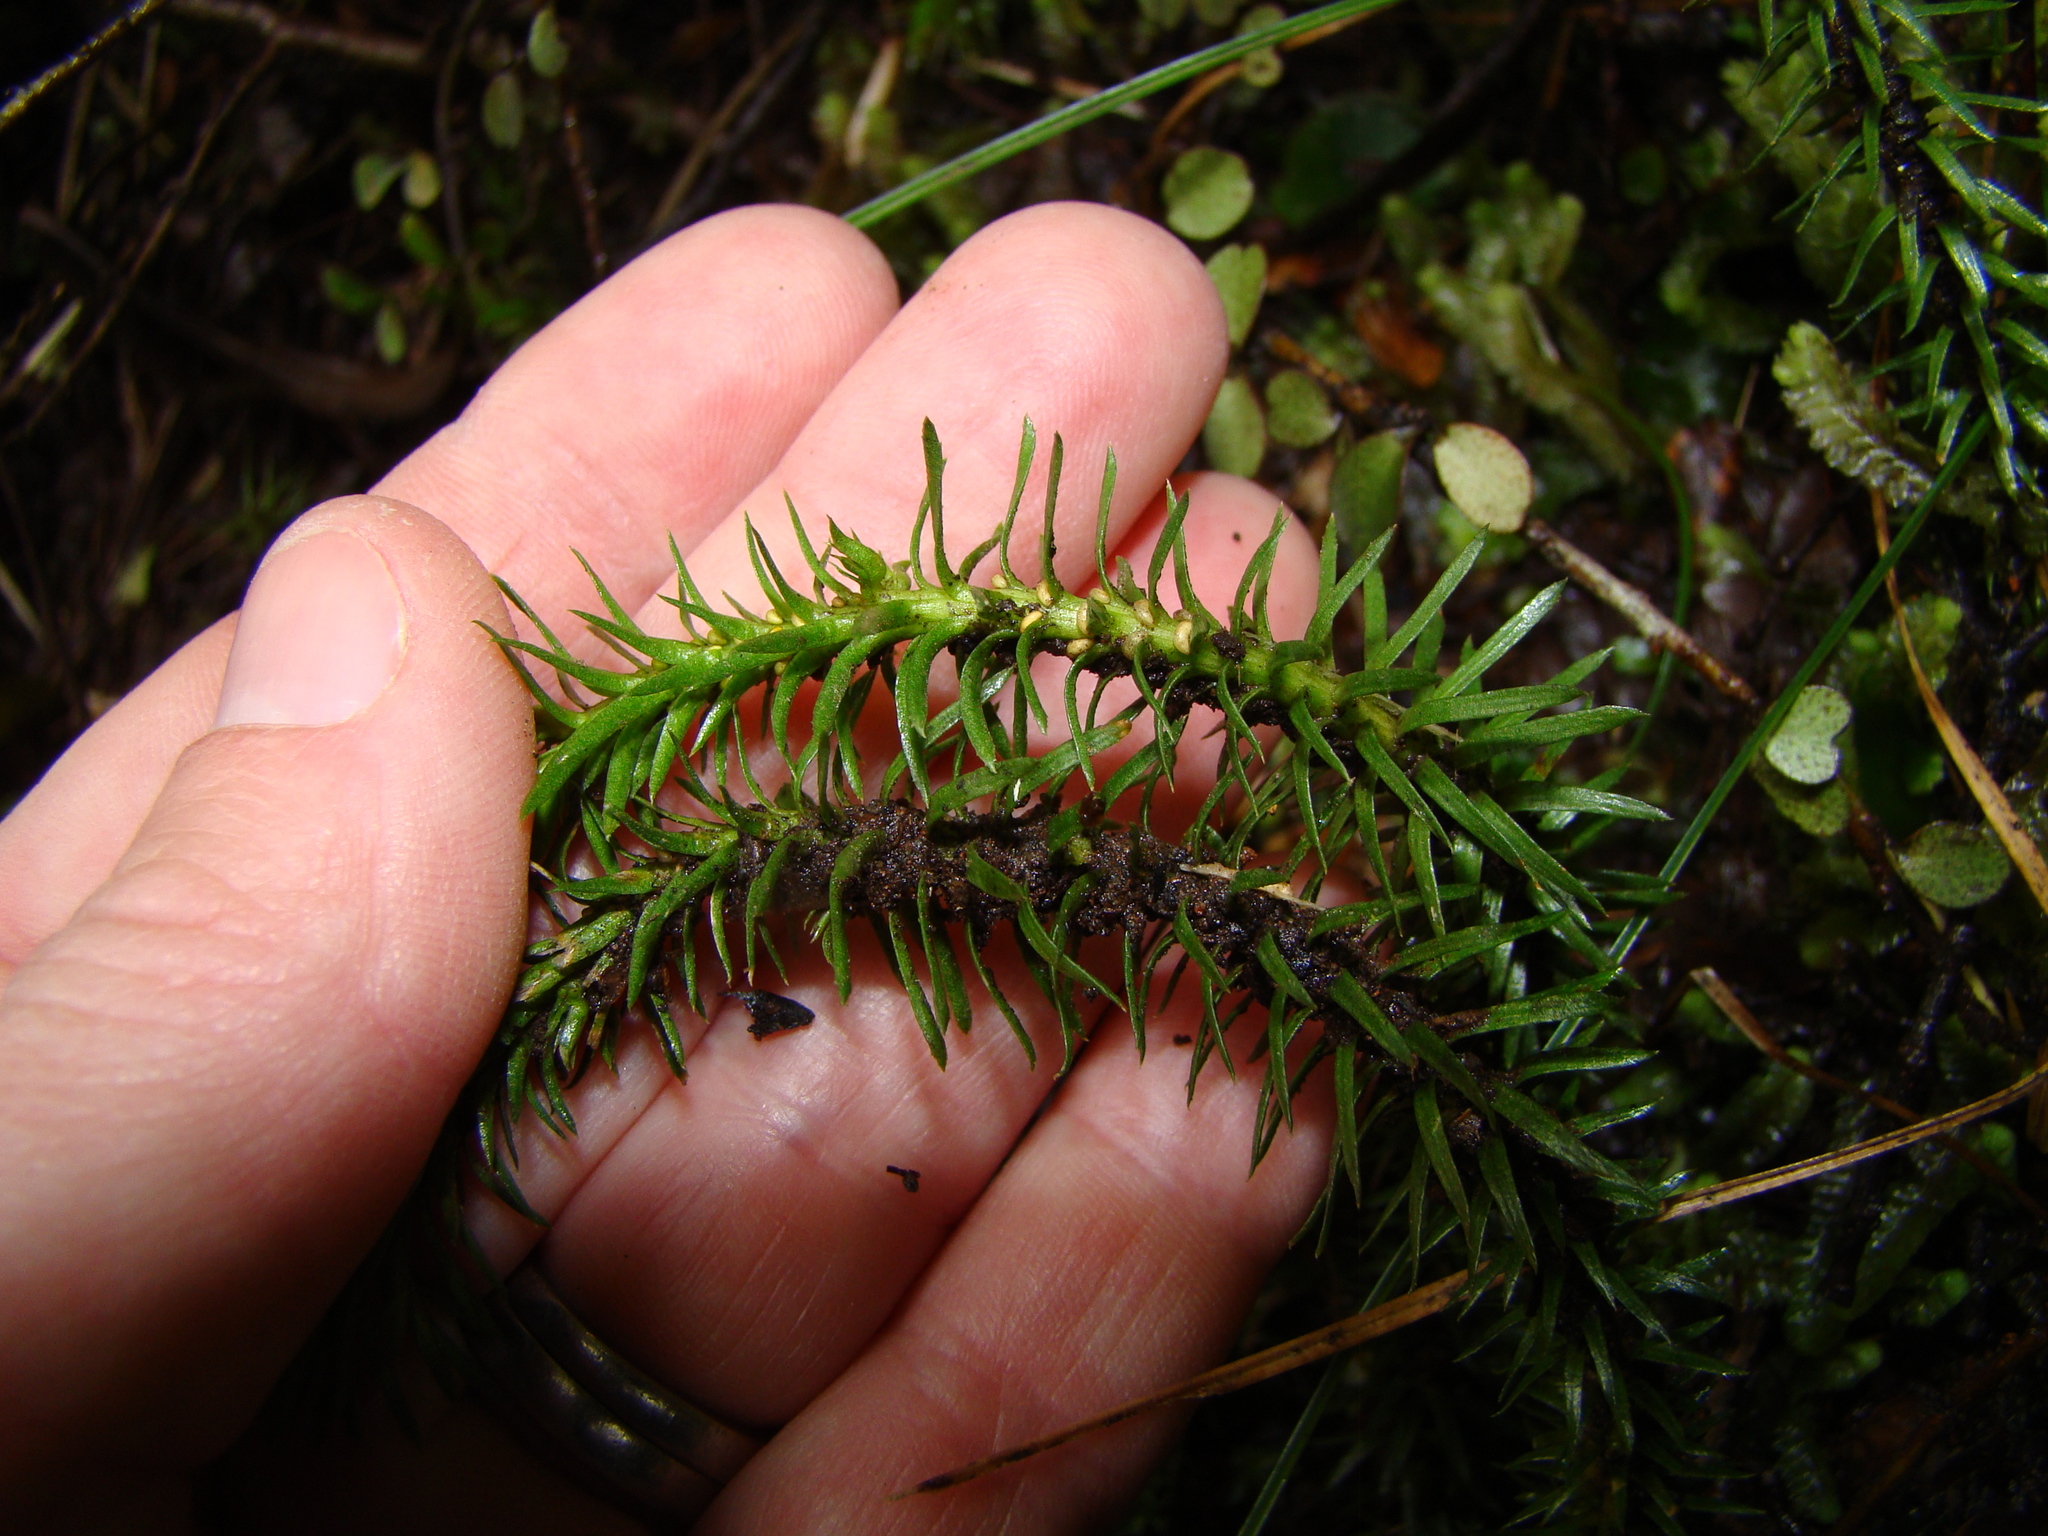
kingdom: Plantae
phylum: Tracheophyta
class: Lycopodiopsida
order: Lycopodiales
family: Lycopodiaceae
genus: Huperzia
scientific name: Huperzia australiana
